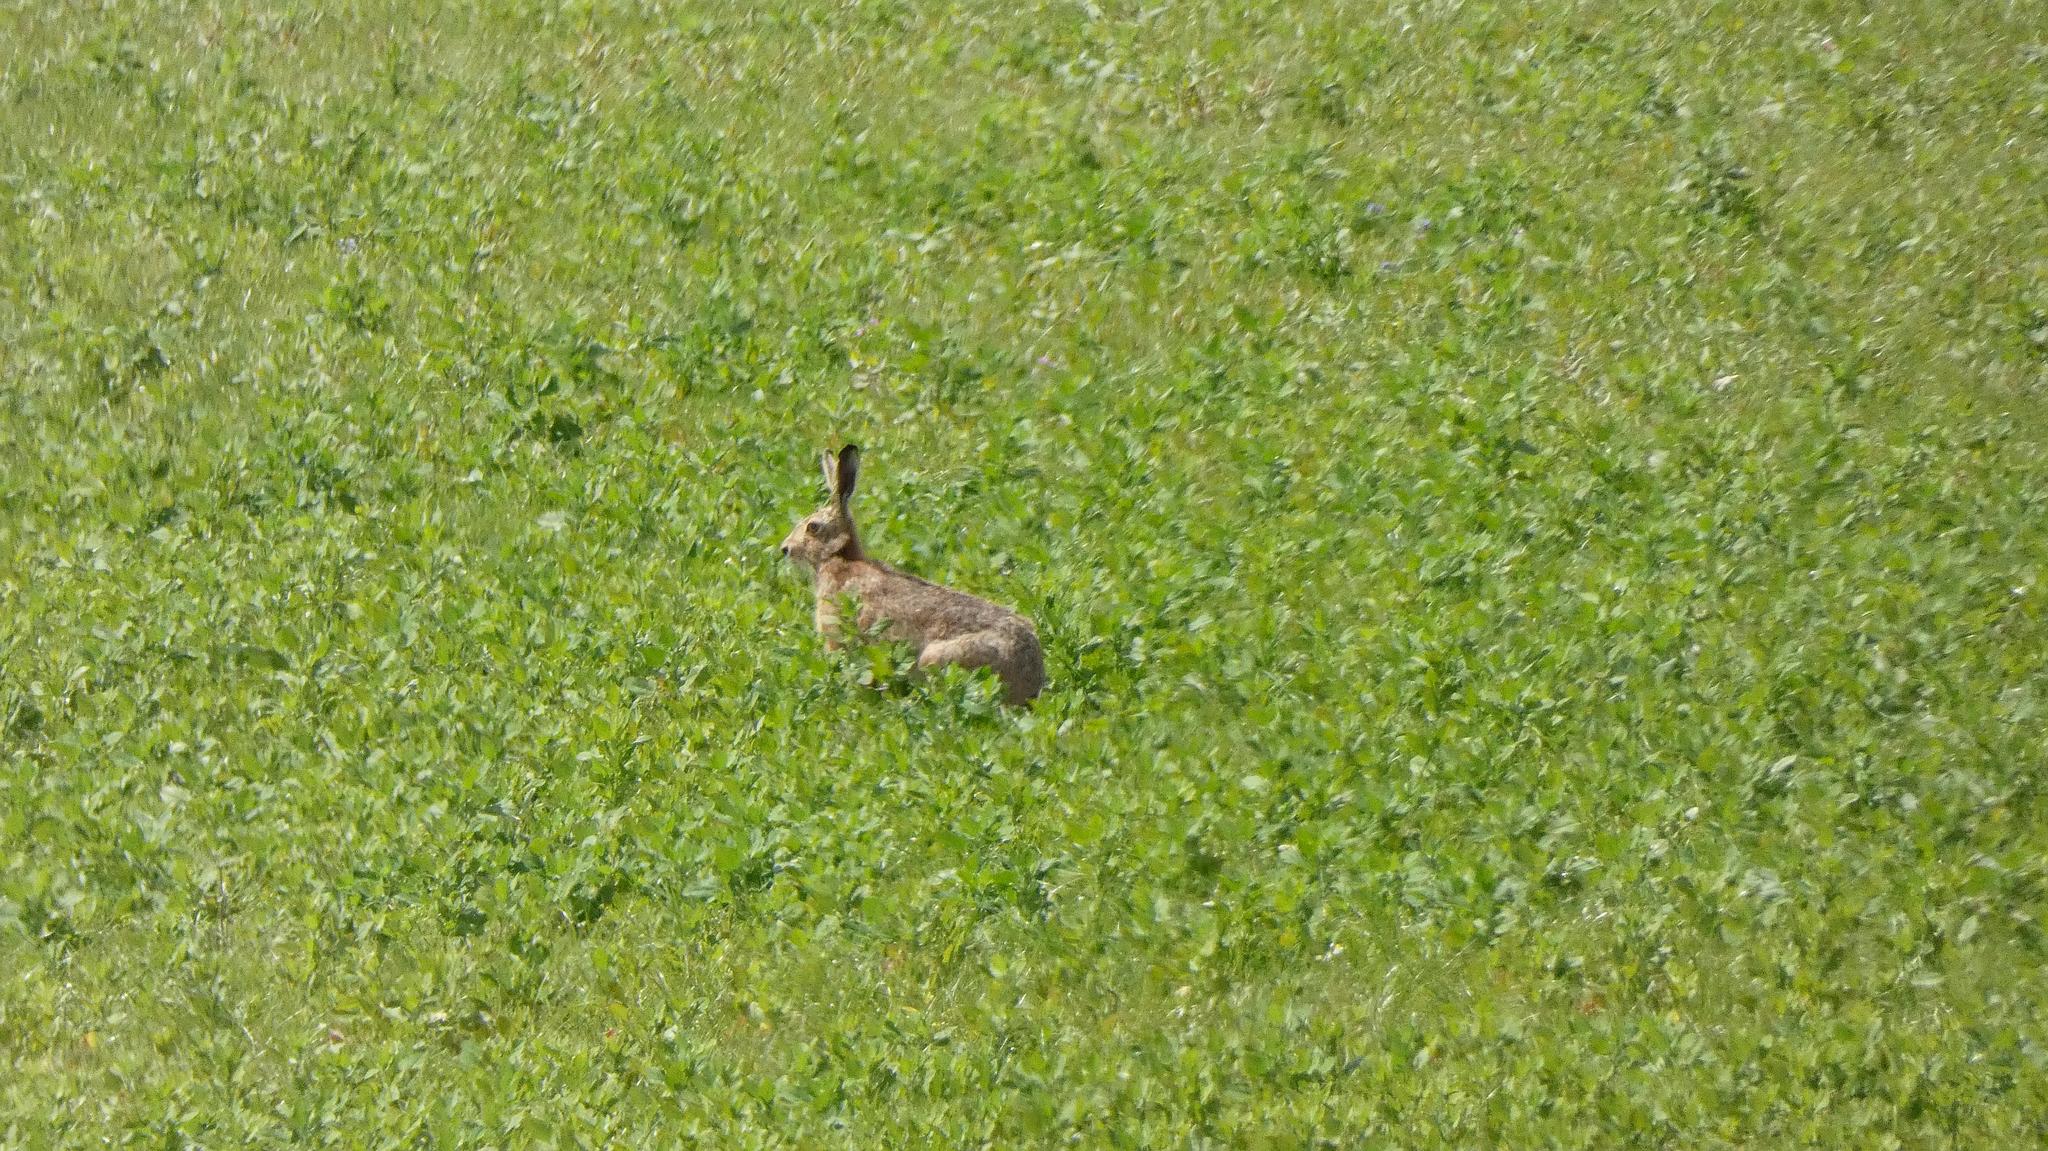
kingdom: Animalia
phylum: Chordata
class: Mammalia
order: Lagomorpha
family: Leporidae
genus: Lepus
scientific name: Lepus europaeus
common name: European hare
